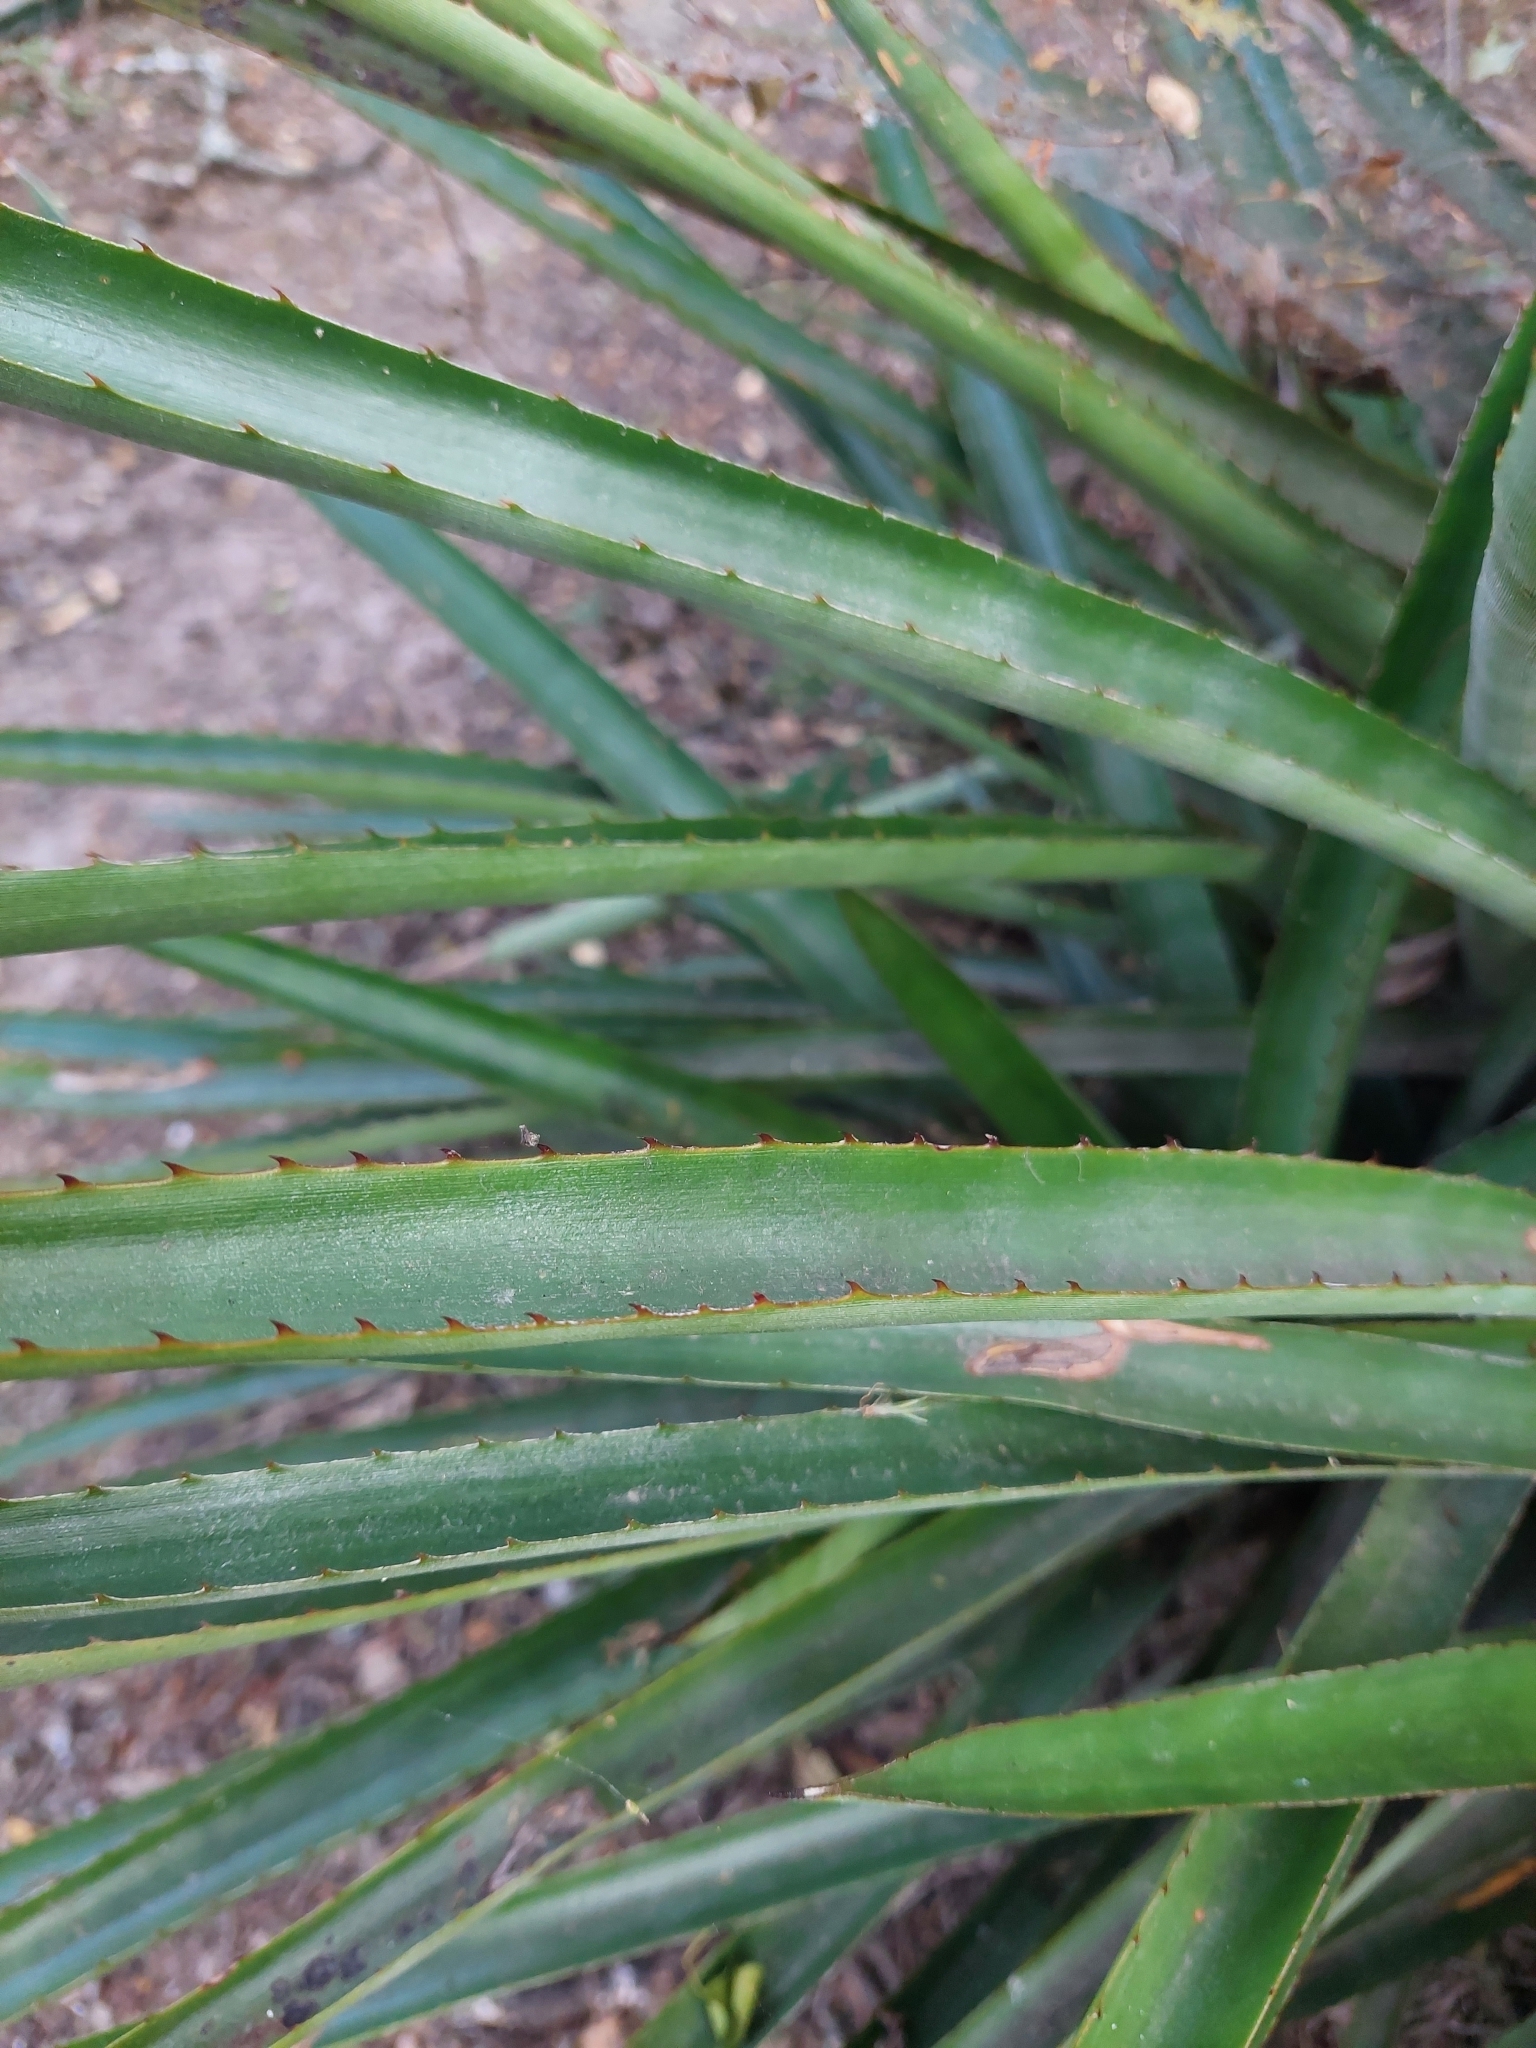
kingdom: Plantae
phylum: Tracheophyta
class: Liliopsida
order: Poales
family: Bromeliaceae
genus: Aechmea
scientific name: Aechmea distichantha
